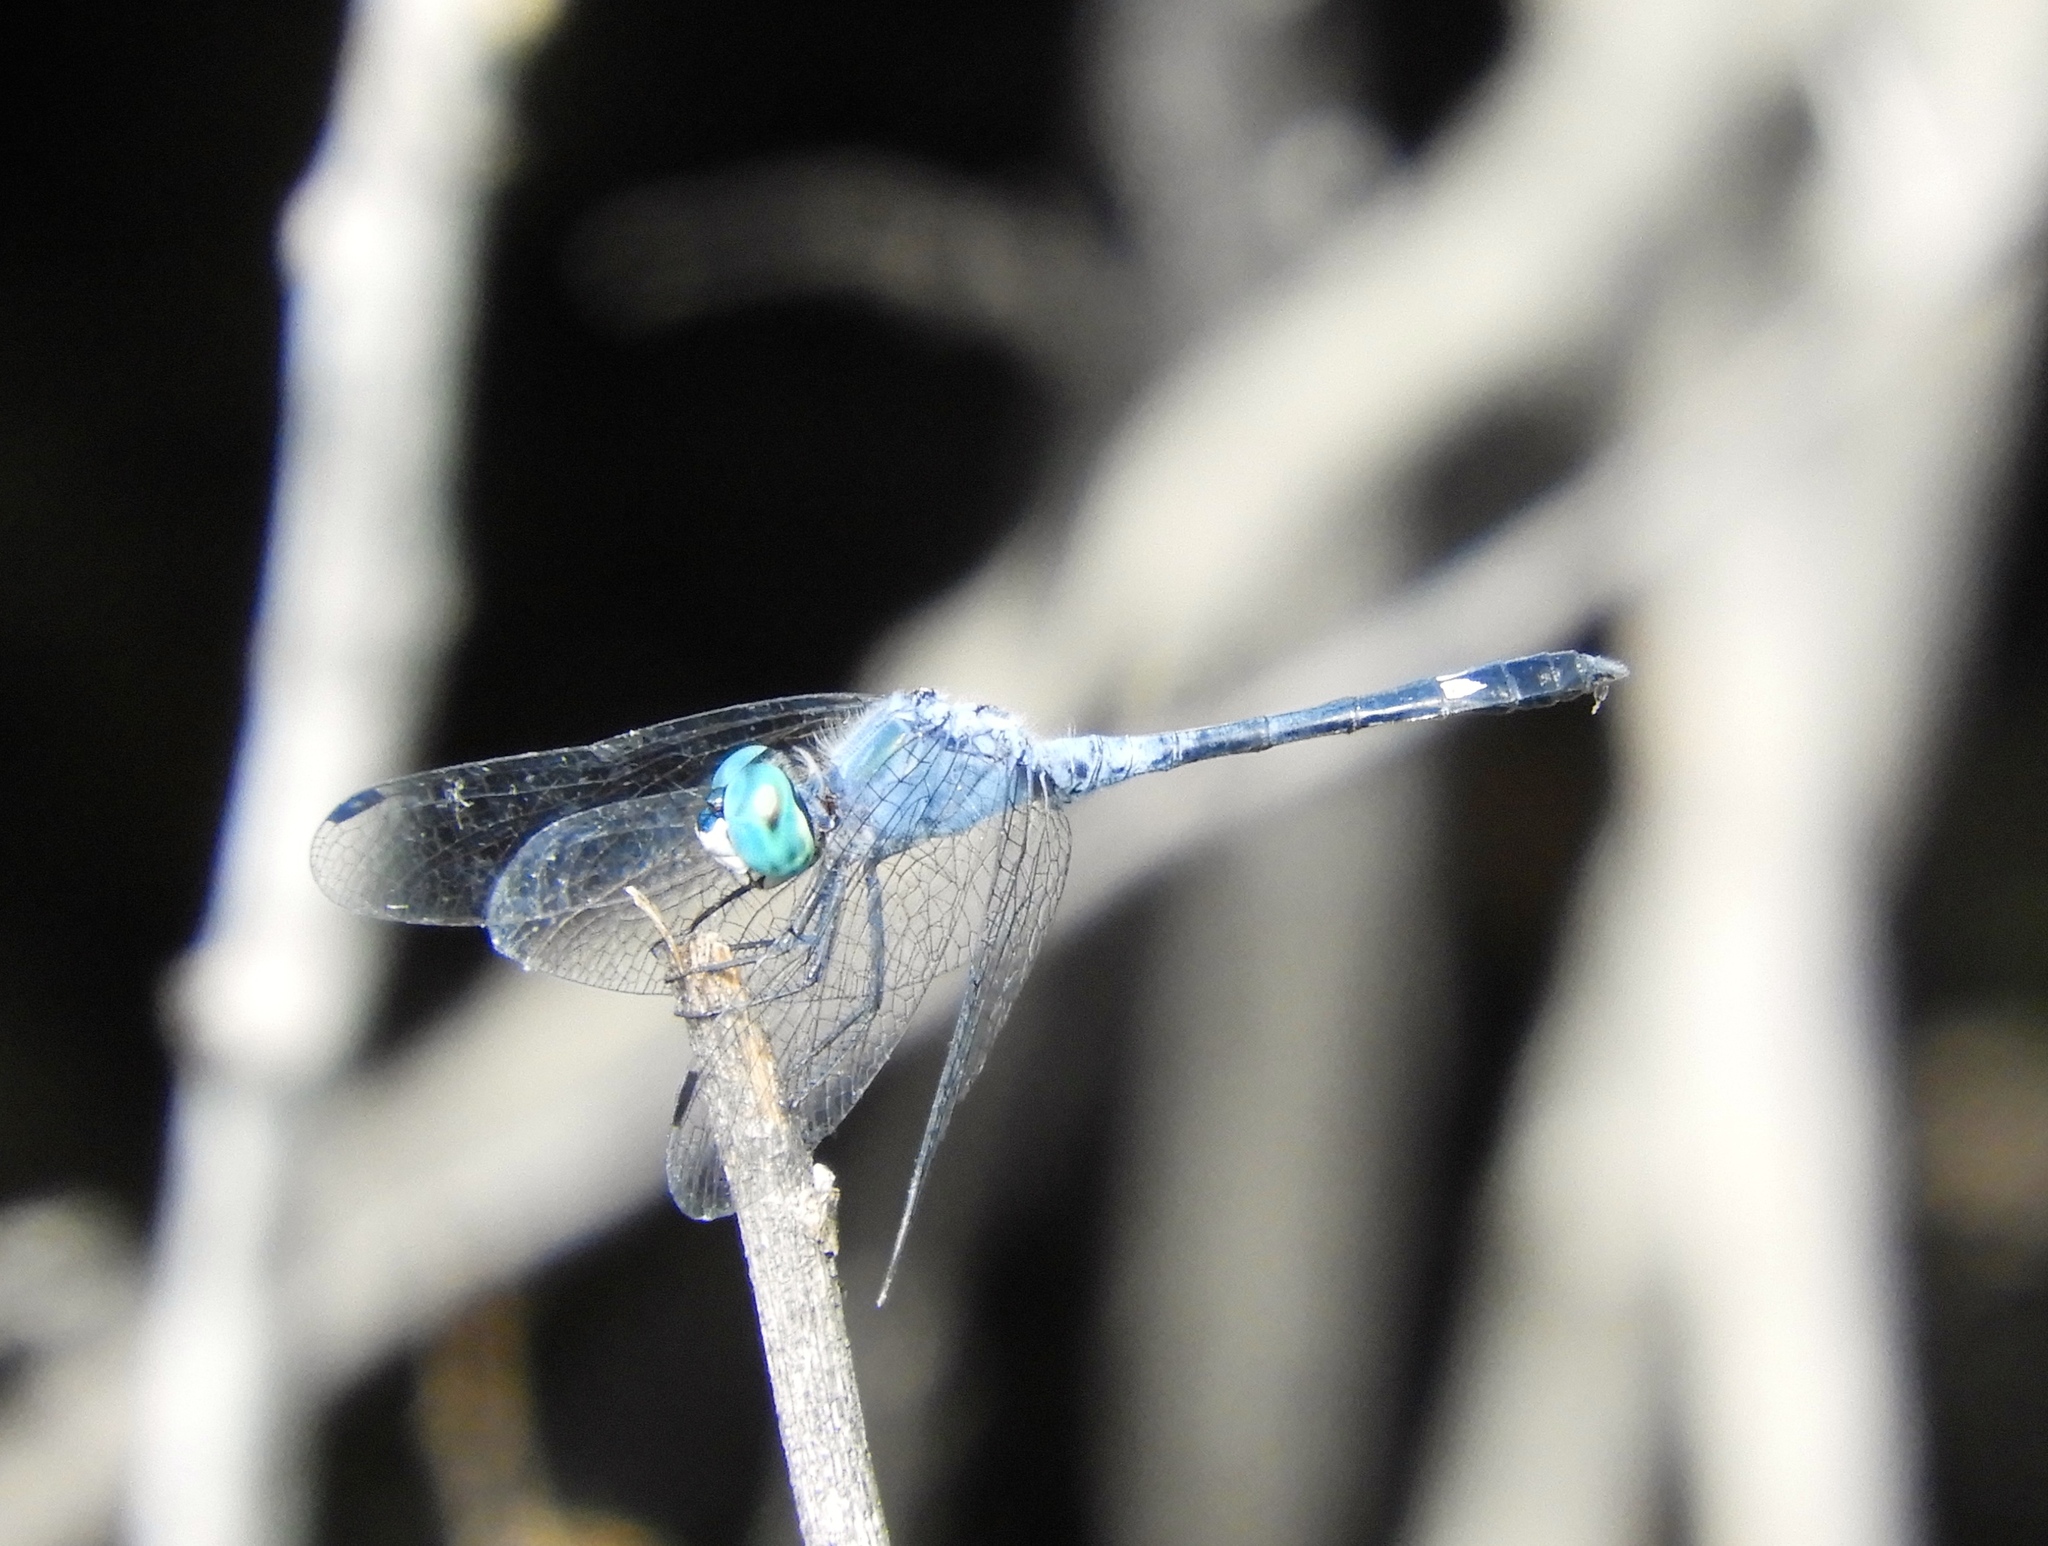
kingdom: Animalia
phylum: Arthropoda
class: Insecta
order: Odonata
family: Libellulidae
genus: Micrathyria
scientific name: Micrathyria aequalis
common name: Spot-tailed dasher
